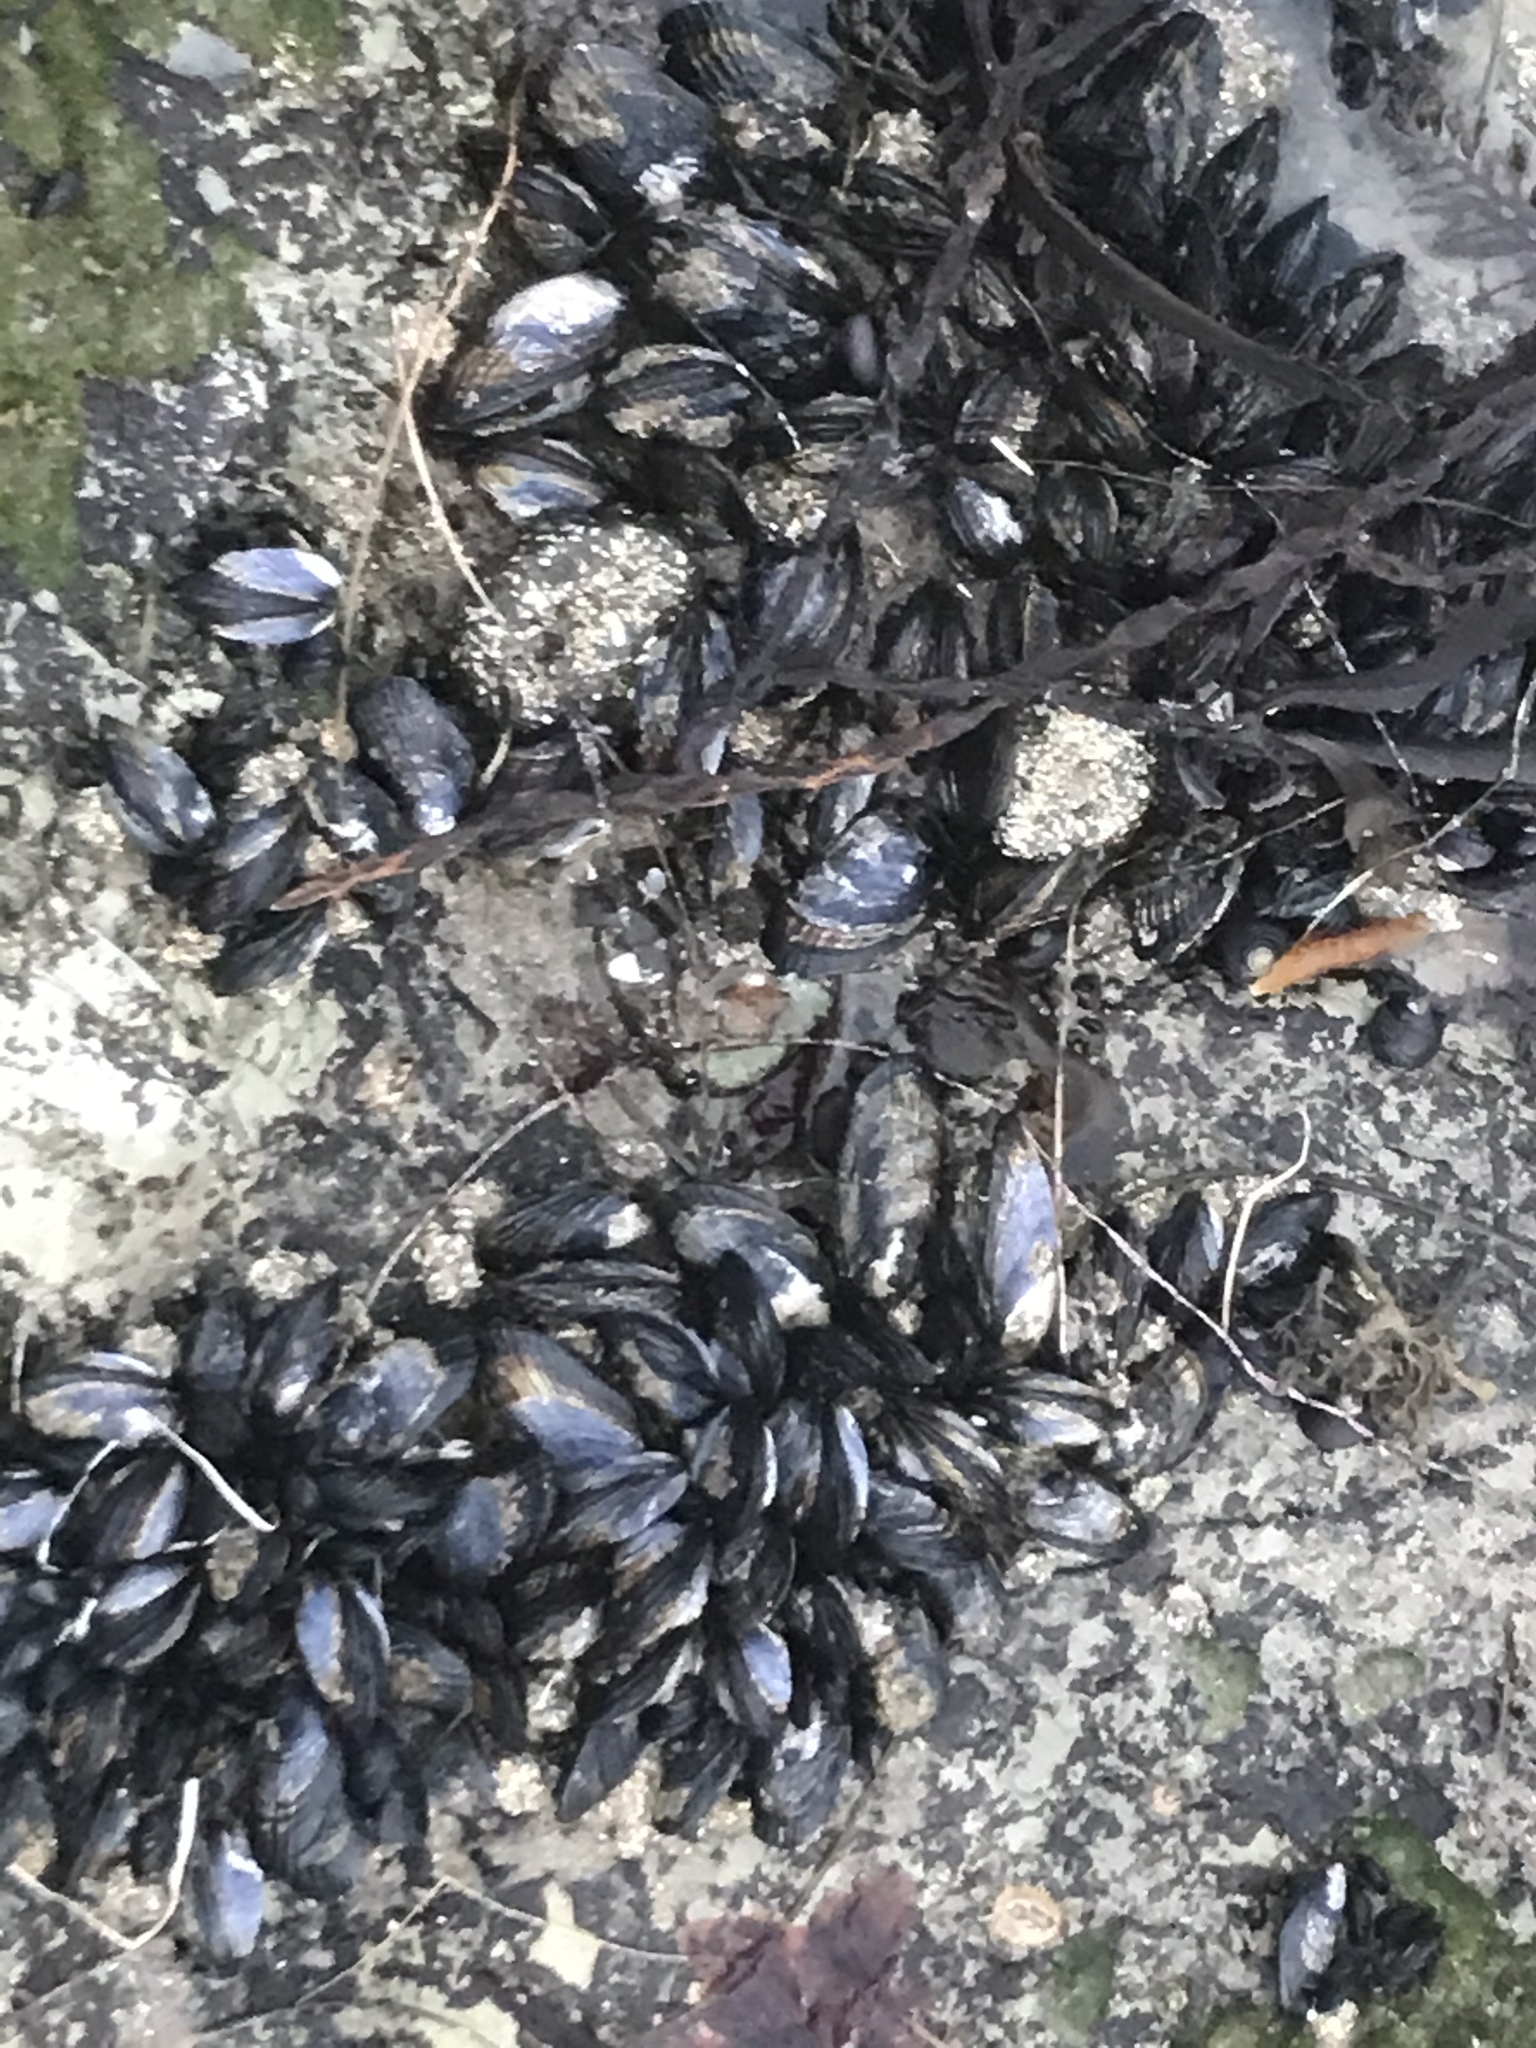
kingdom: Animalia
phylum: Mollusca
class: Bivalvia
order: Mytilida
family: Mytilidae
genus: Mytilus
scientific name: Mytilus californianus
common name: California mussel
